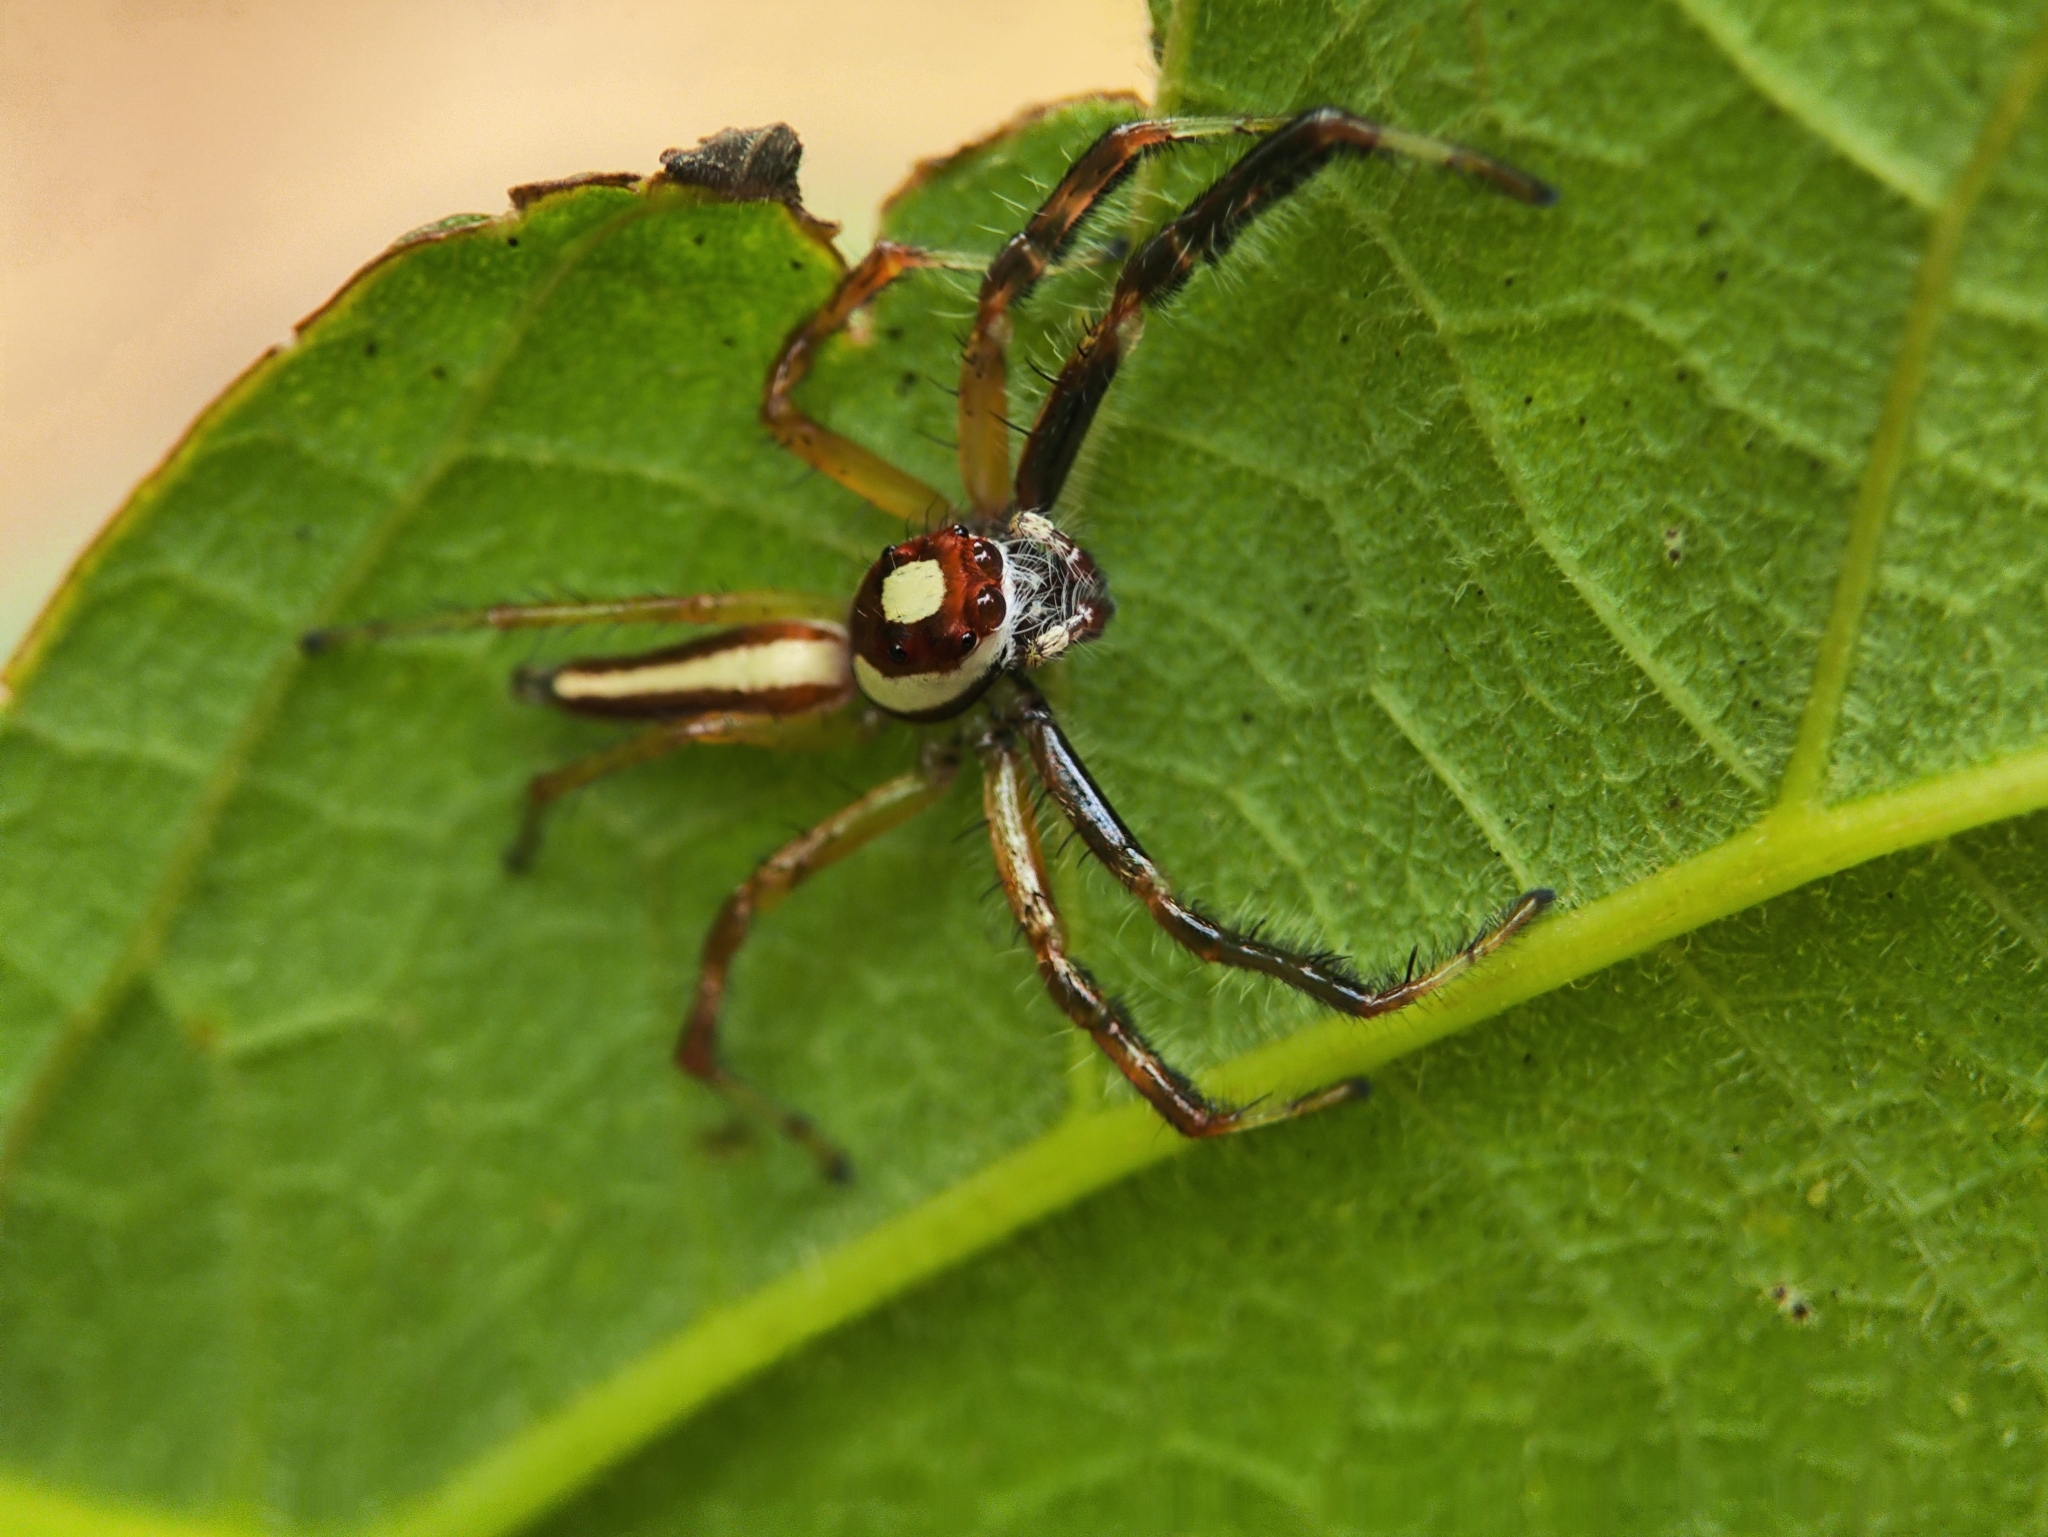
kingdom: Animalia
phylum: Arthropoda
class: Arachnida
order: Araneae
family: Salticidae
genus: Telamonia
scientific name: Telamonia dimidiata
